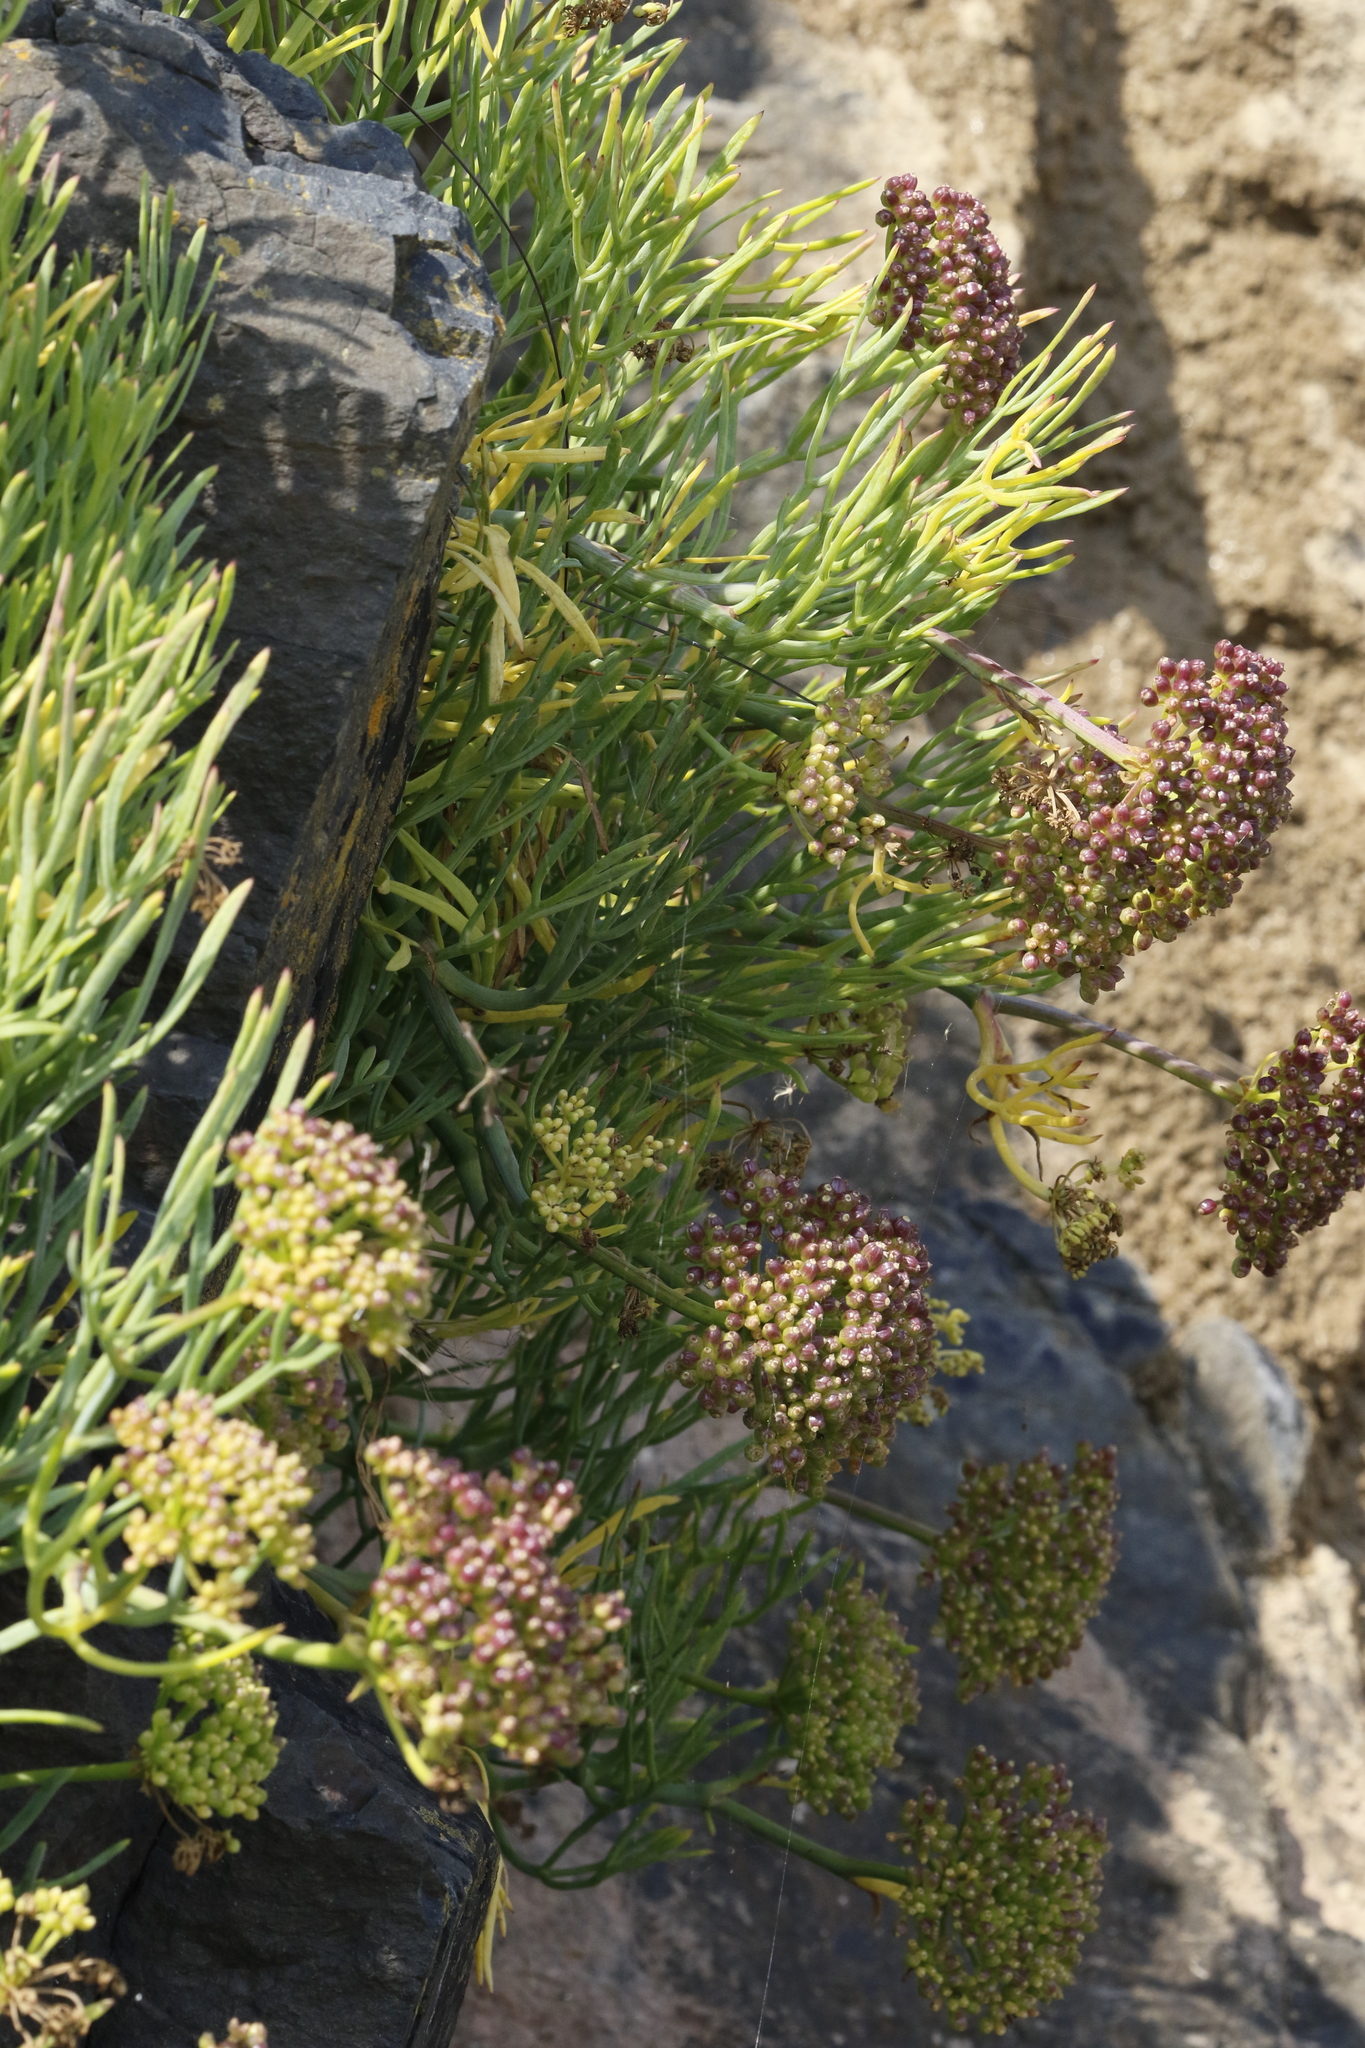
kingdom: Plantae
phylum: Tracheophyta
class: Magnoliopsida
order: Apiales
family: Apiaceae
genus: Crithmum
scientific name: Crithmum maritimum
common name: Rock samphire
